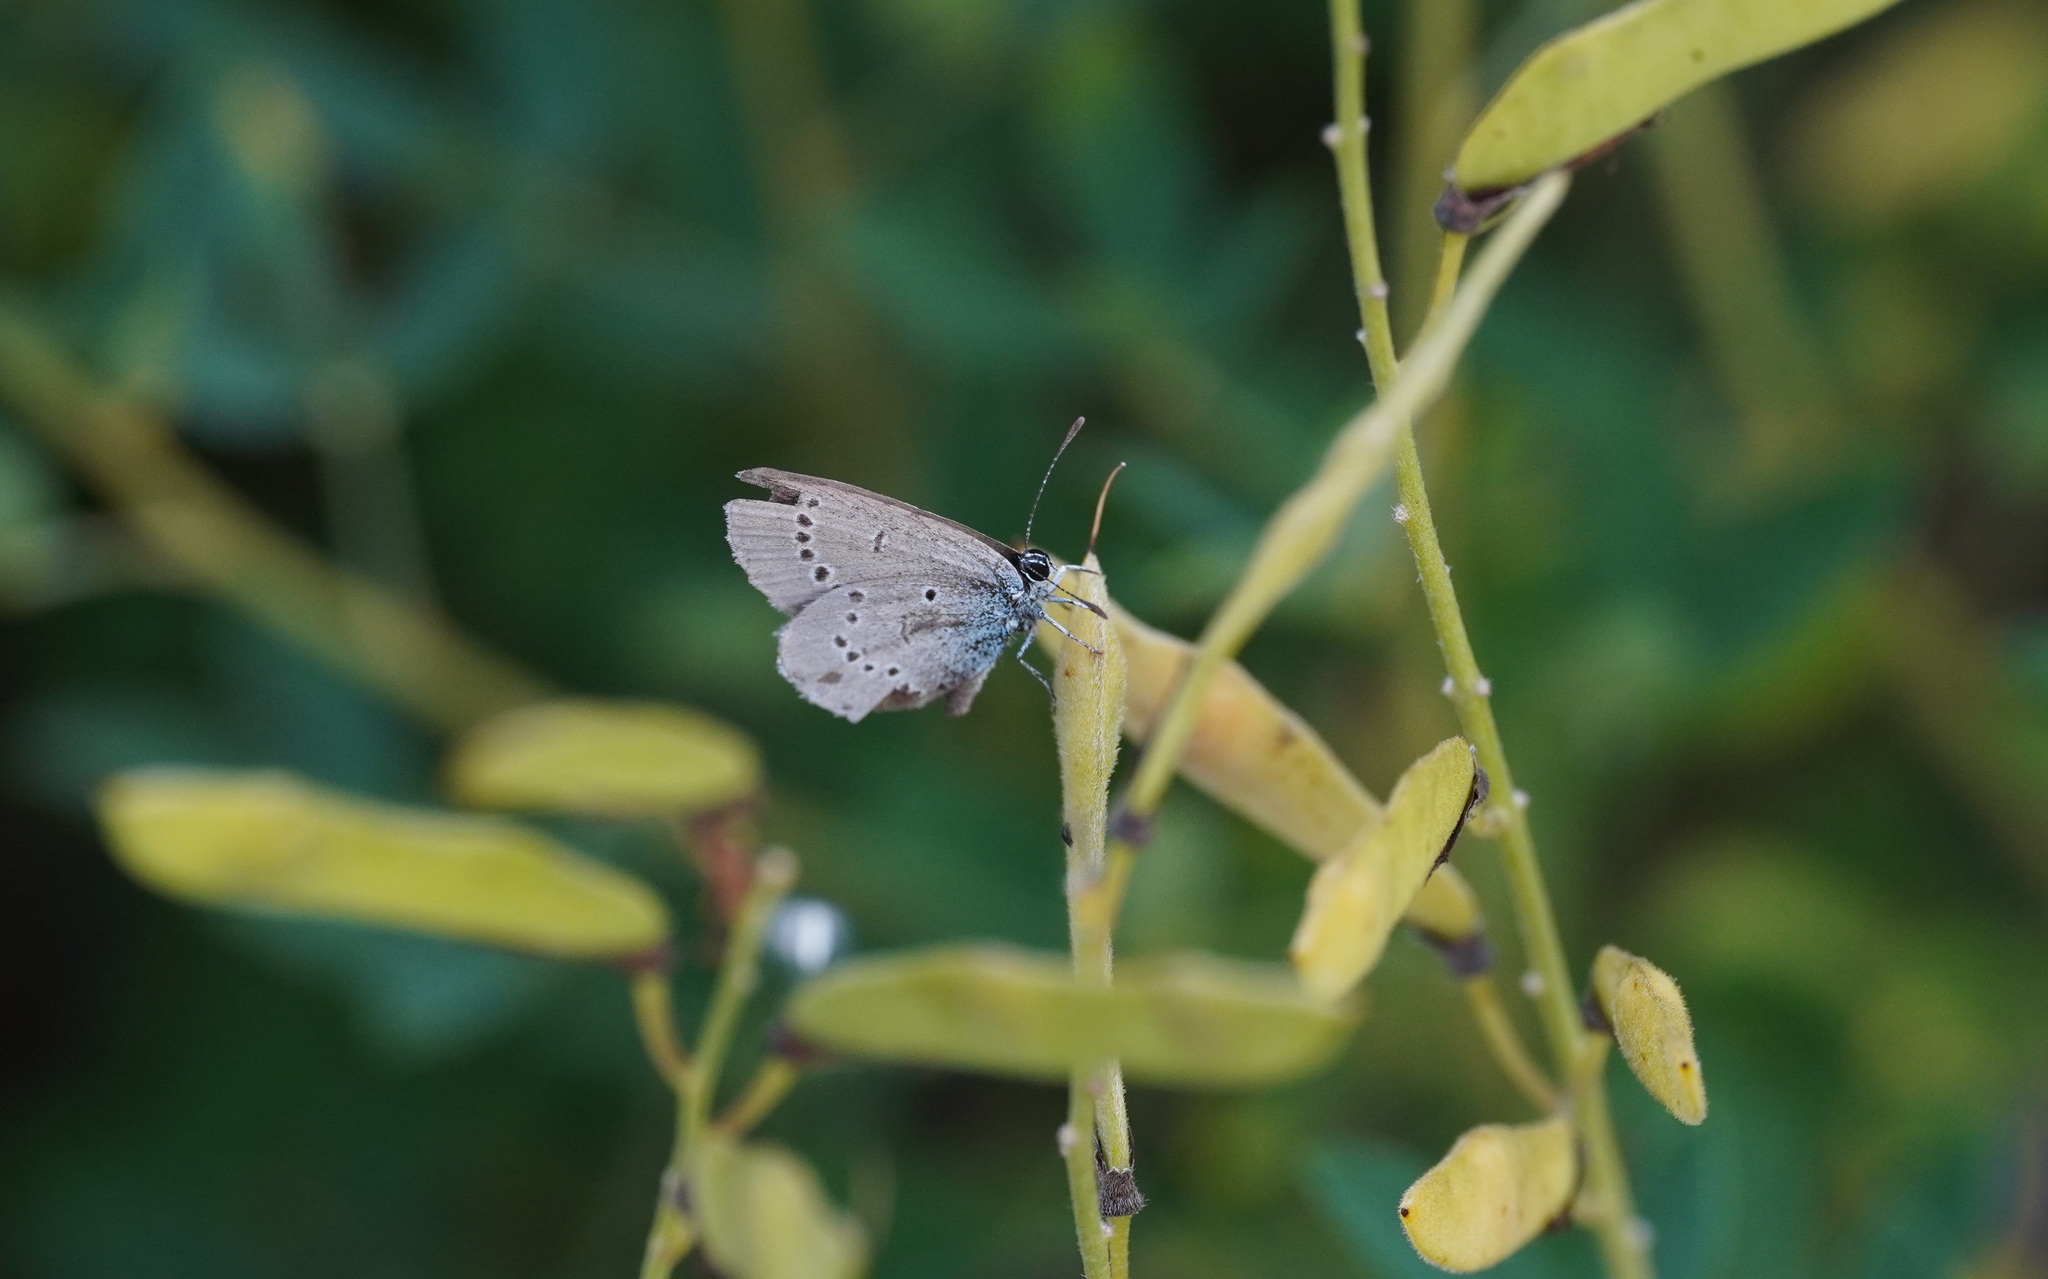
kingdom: Animalia
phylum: Arthropoda
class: Insecta
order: Lepidoptera
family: Lycaenidae
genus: Cupido
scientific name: Cupido minimus
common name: Small blue
